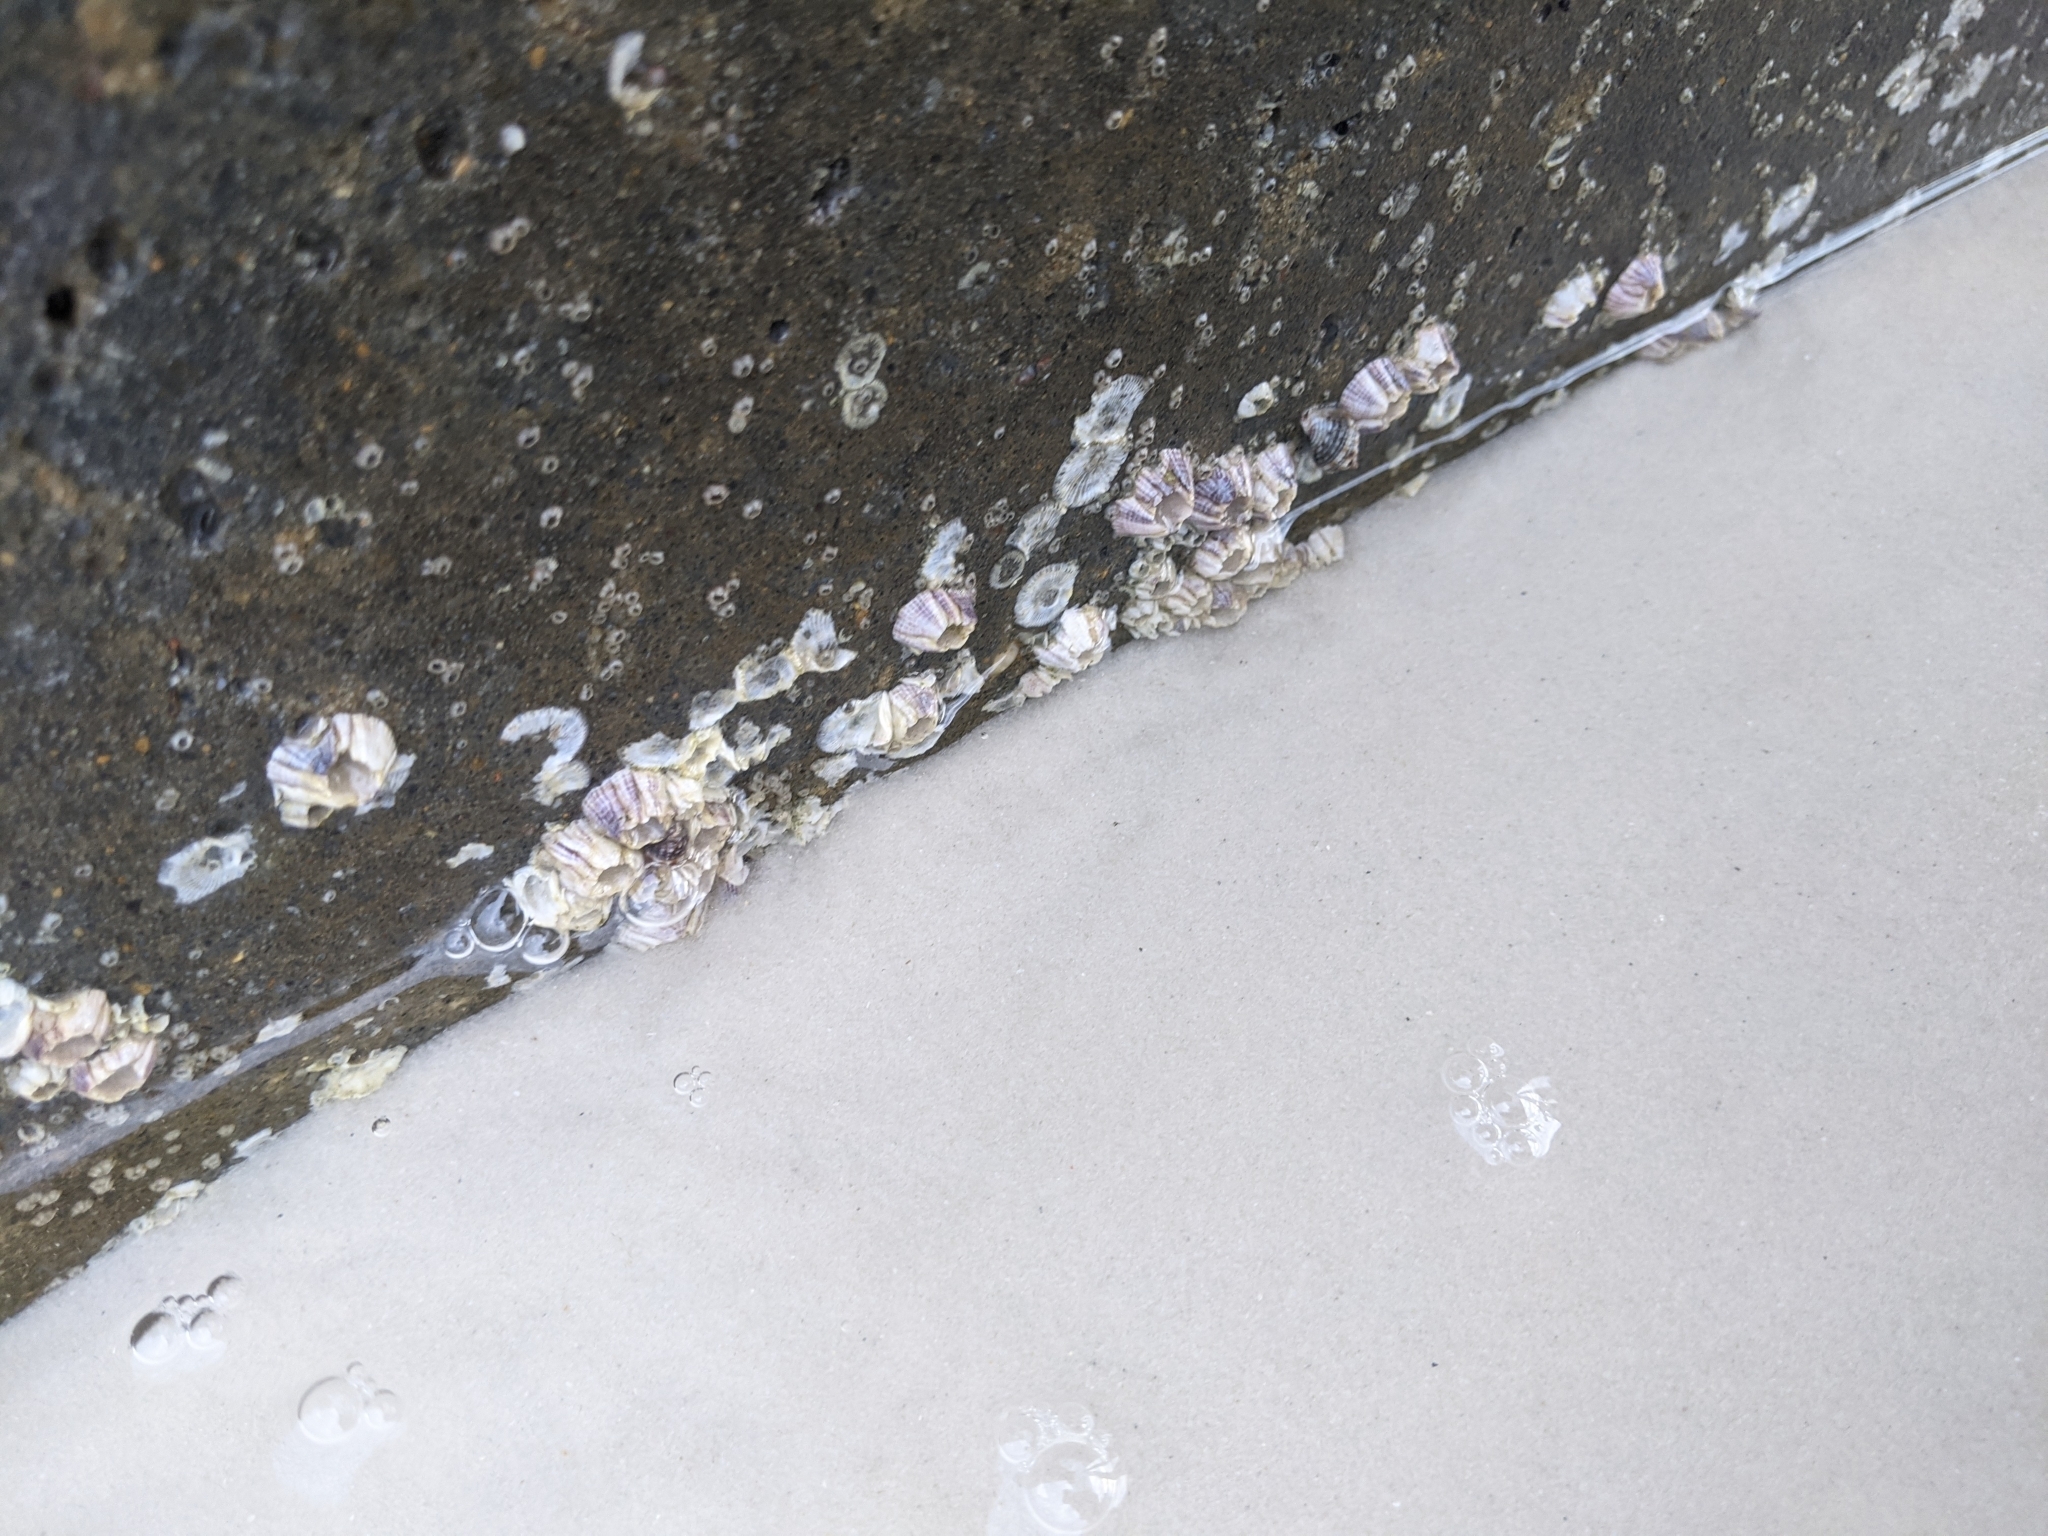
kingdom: Animalia
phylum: Arthropoda
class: Maxillopoda
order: Sessilia
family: Balanidae
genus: Amphibalanus
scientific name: Amphibalanus reticulatus
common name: Reticulated barnacle
